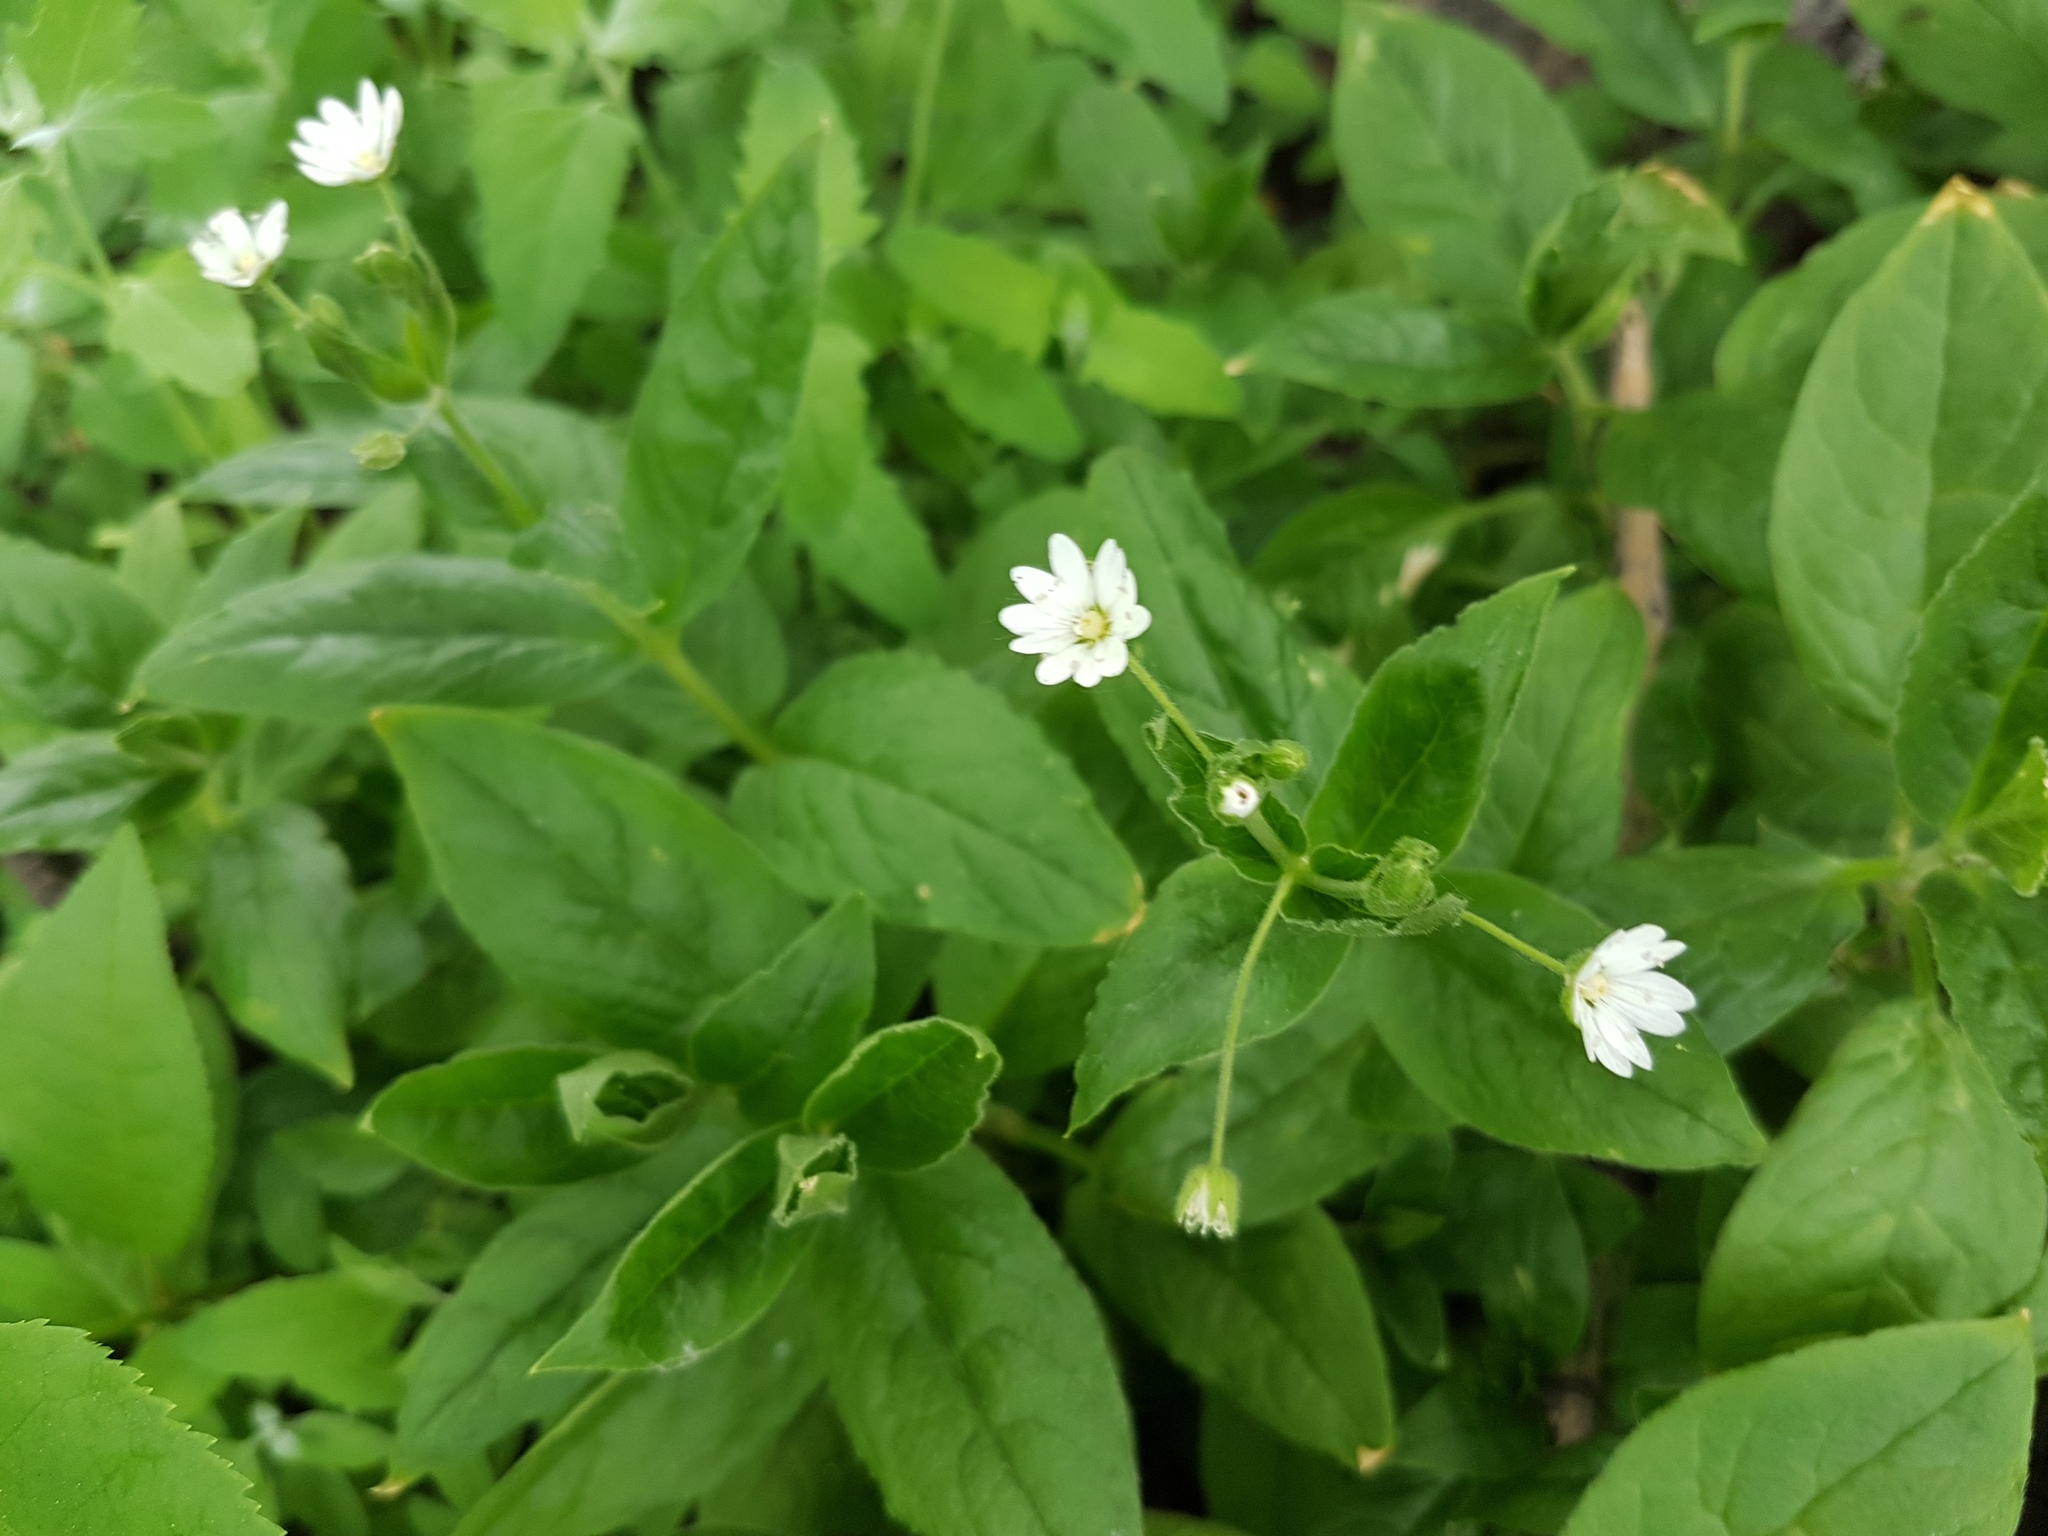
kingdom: Plantae
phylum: Tracheophyta
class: Magnoliopsida
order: Caryophyllales
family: Caryophyllaceae
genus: Stellaria
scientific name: Stellaria bungeana
